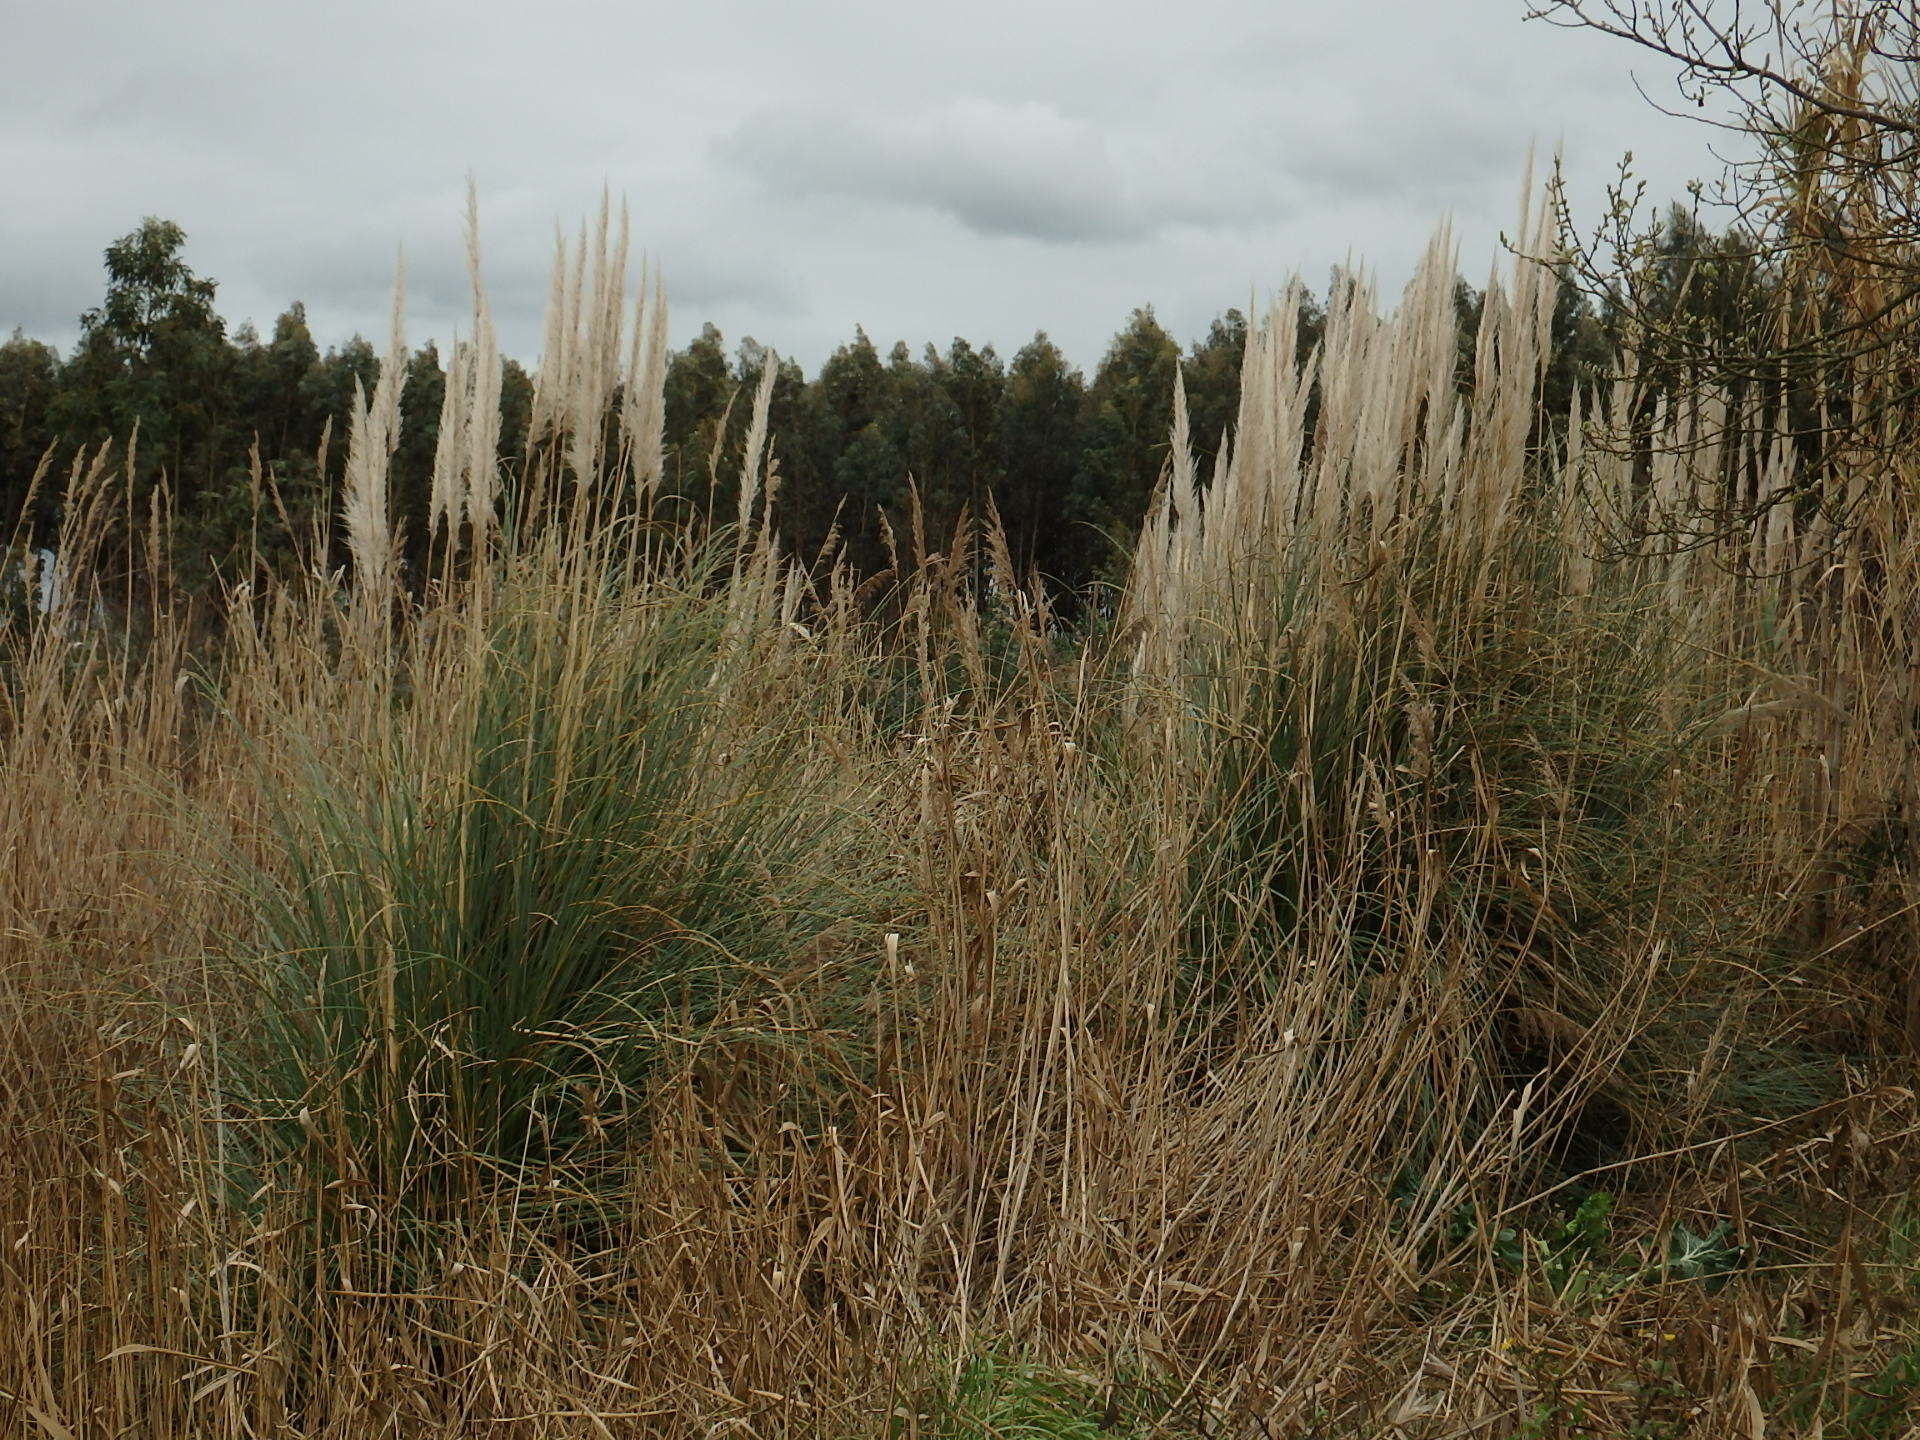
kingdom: Plantae
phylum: Tracheophyta
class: Liliopsida
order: Poales
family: Poaceae
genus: Cortaderia
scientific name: Cortaderia selloana
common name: Uruguayan pampas grass
